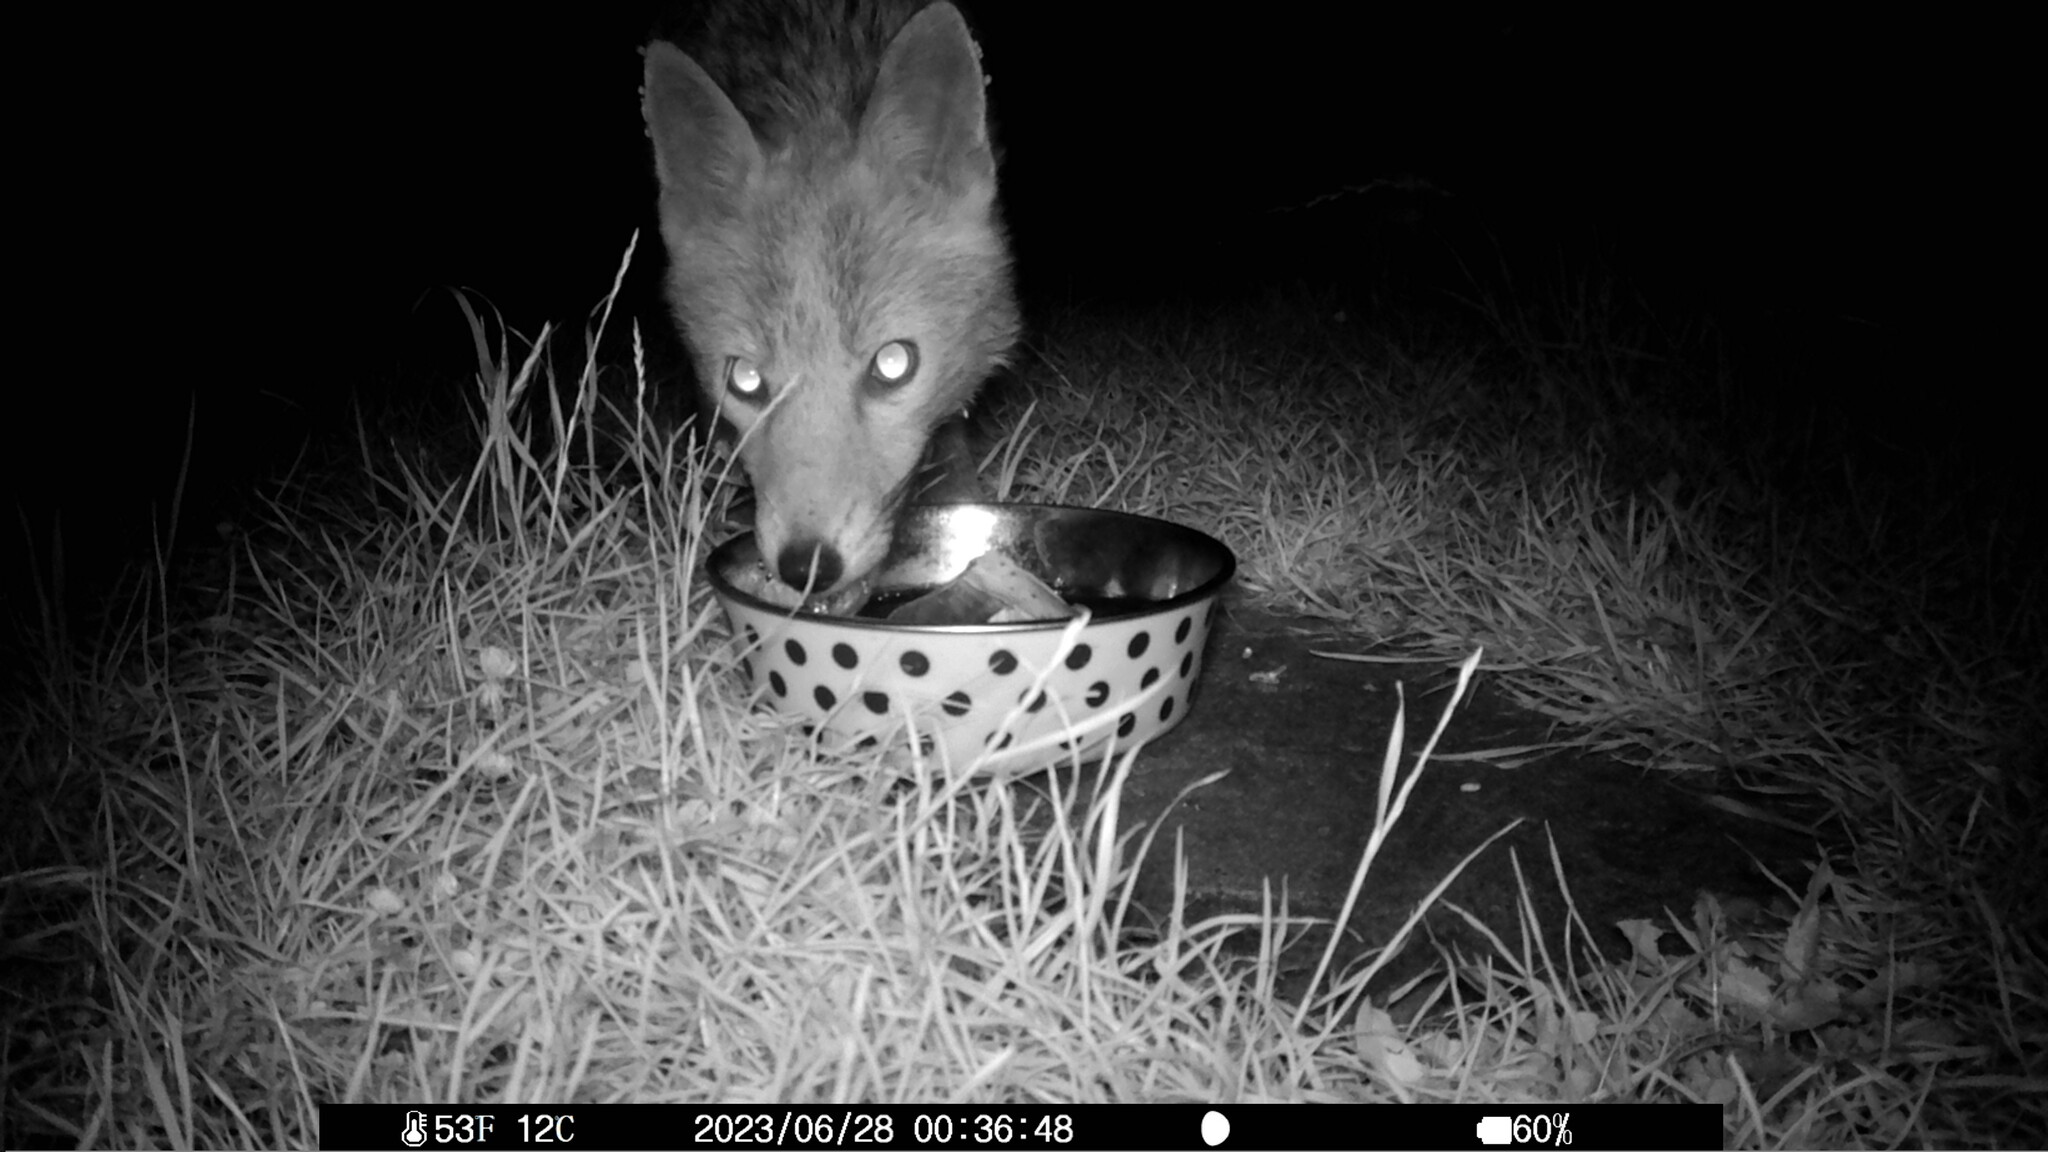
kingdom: Animalia
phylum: Chordata
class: Mammalia
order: Carnivora
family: Canidae
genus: Vulpes
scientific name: Vulpes vulpes
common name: Red fox
